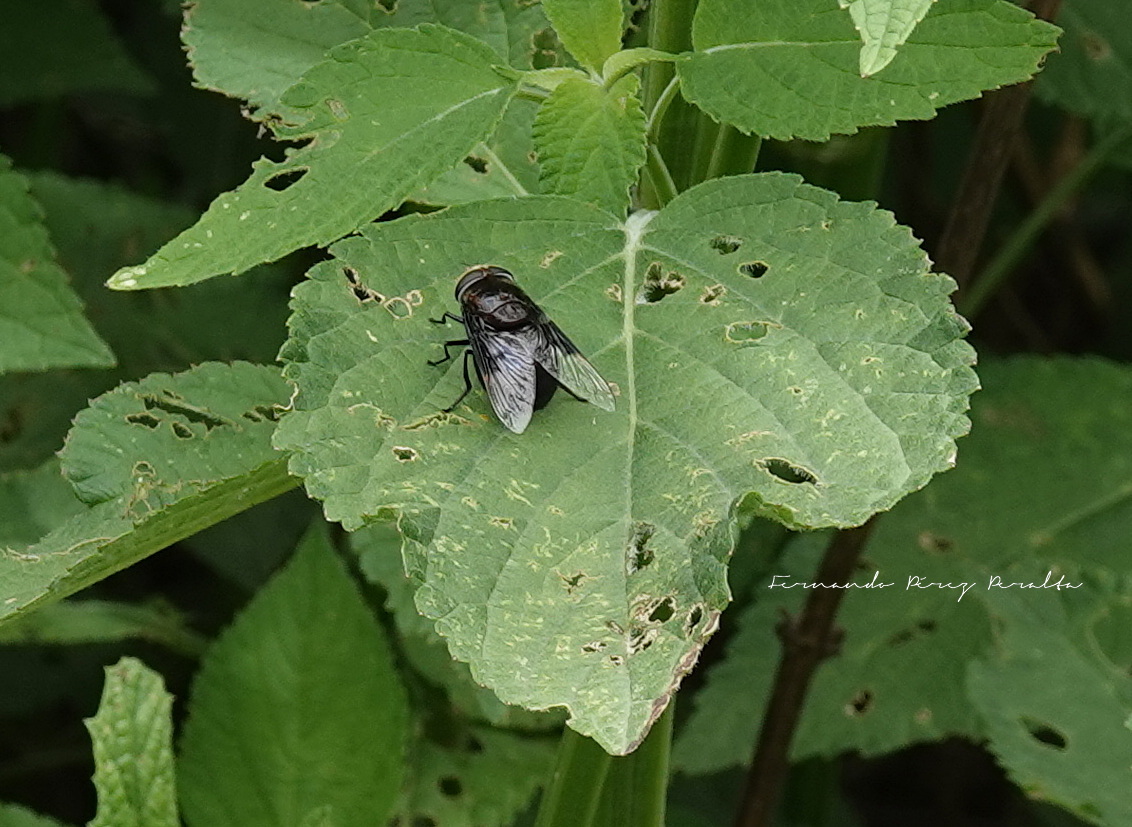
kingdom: Animalia
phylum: Arthropoda
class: Insecta
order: Diptera
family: Syrphidae
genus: Copestylum
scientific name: Copestylum mexicanum
